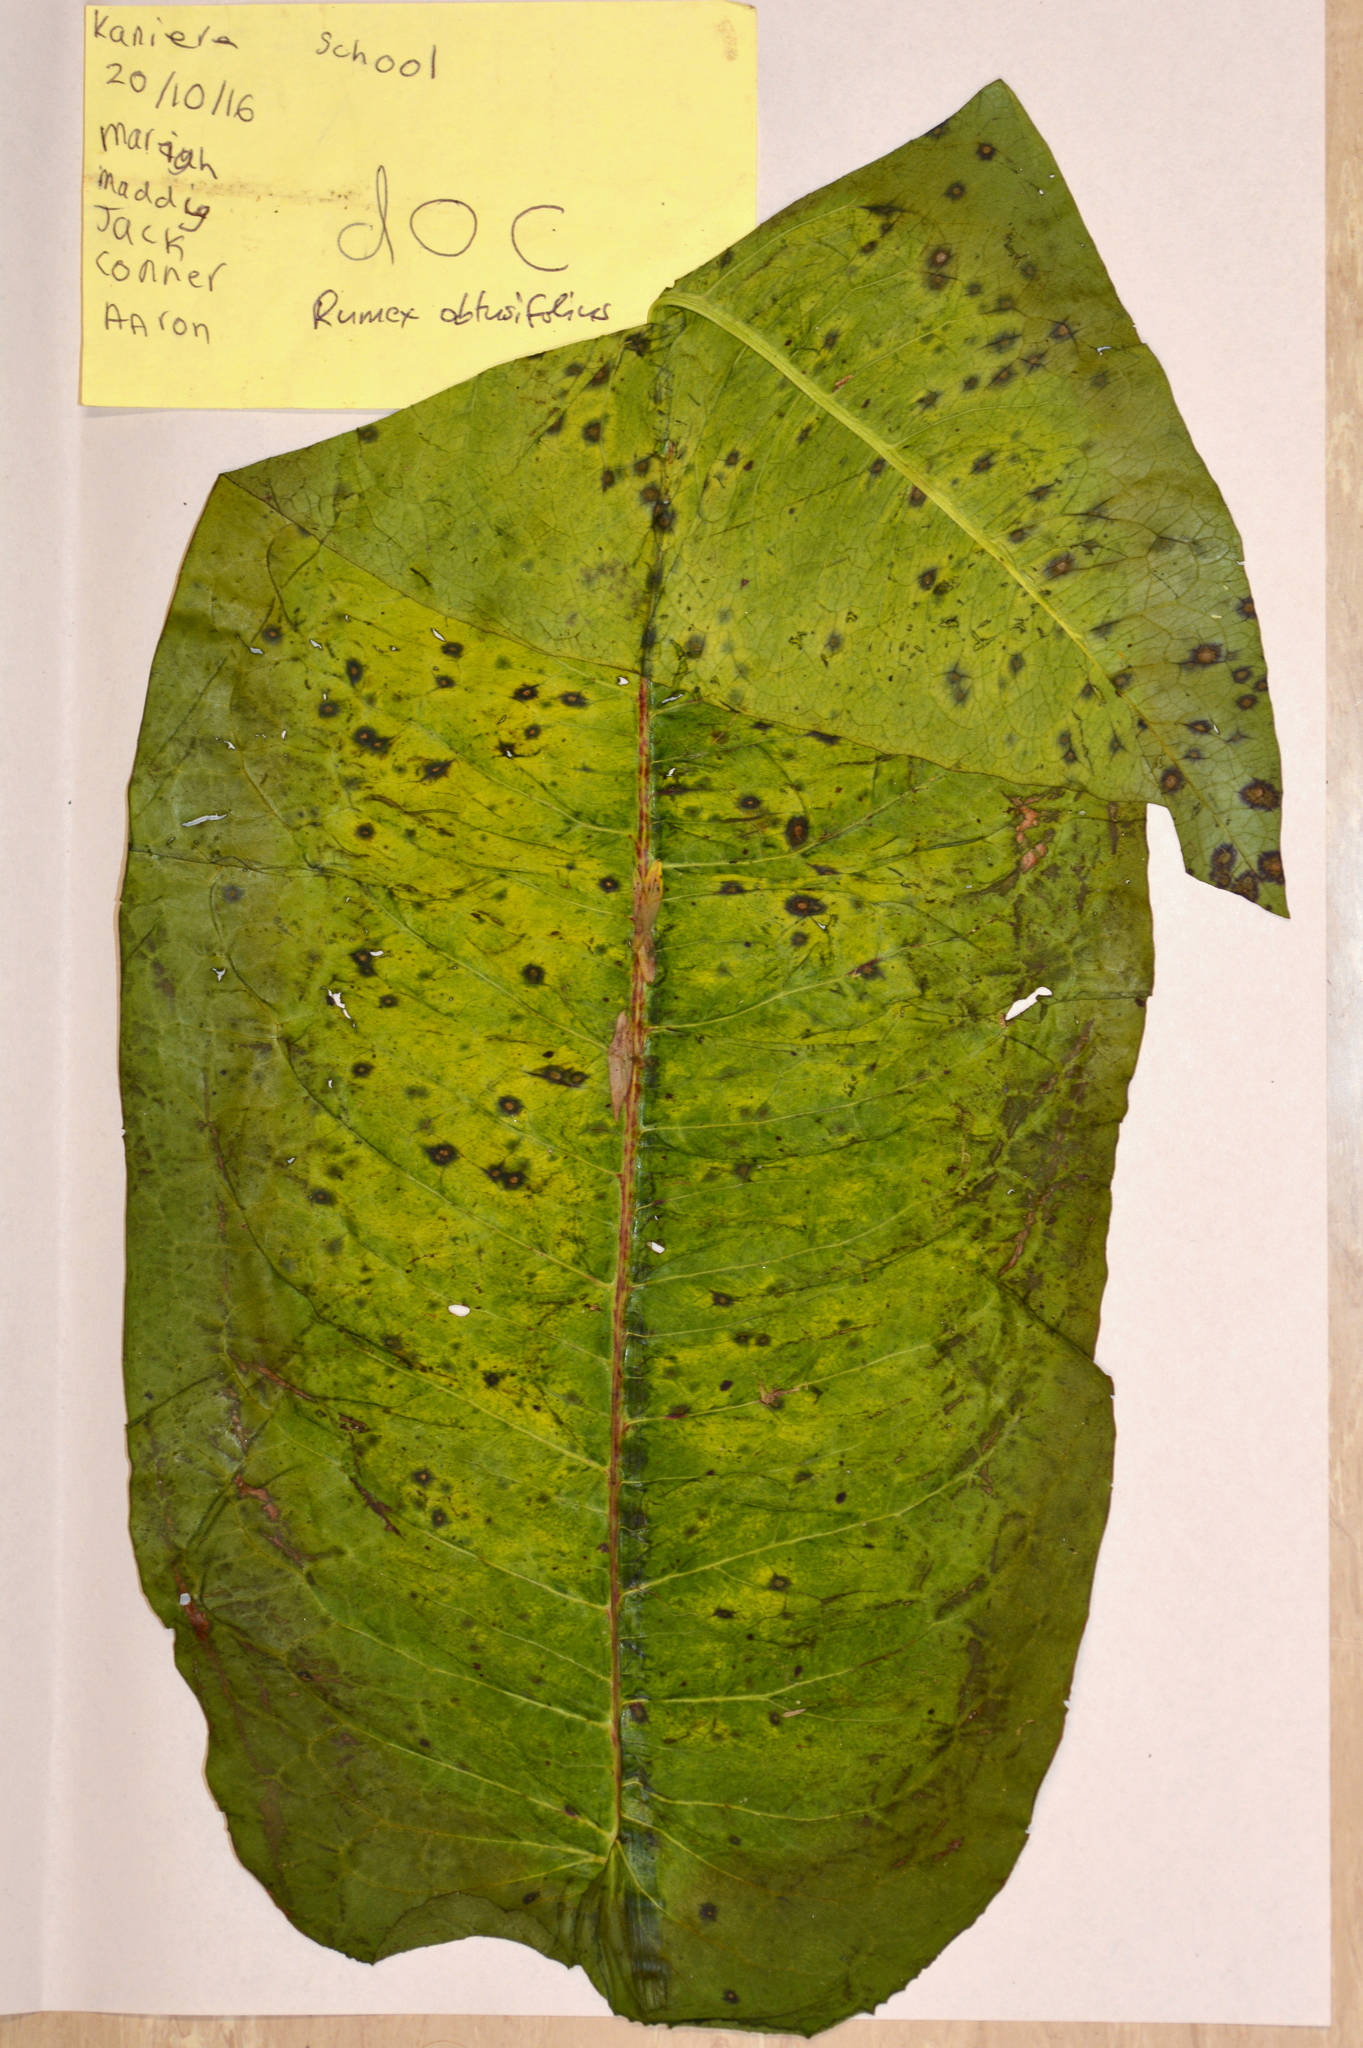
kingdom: Plantae
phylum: Tracheophyta
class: Magnoliopsida
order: Caryophyllales
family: Polygonaceae
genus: Rumex
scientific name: Rumex obtusifolius
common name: Bitter dock
